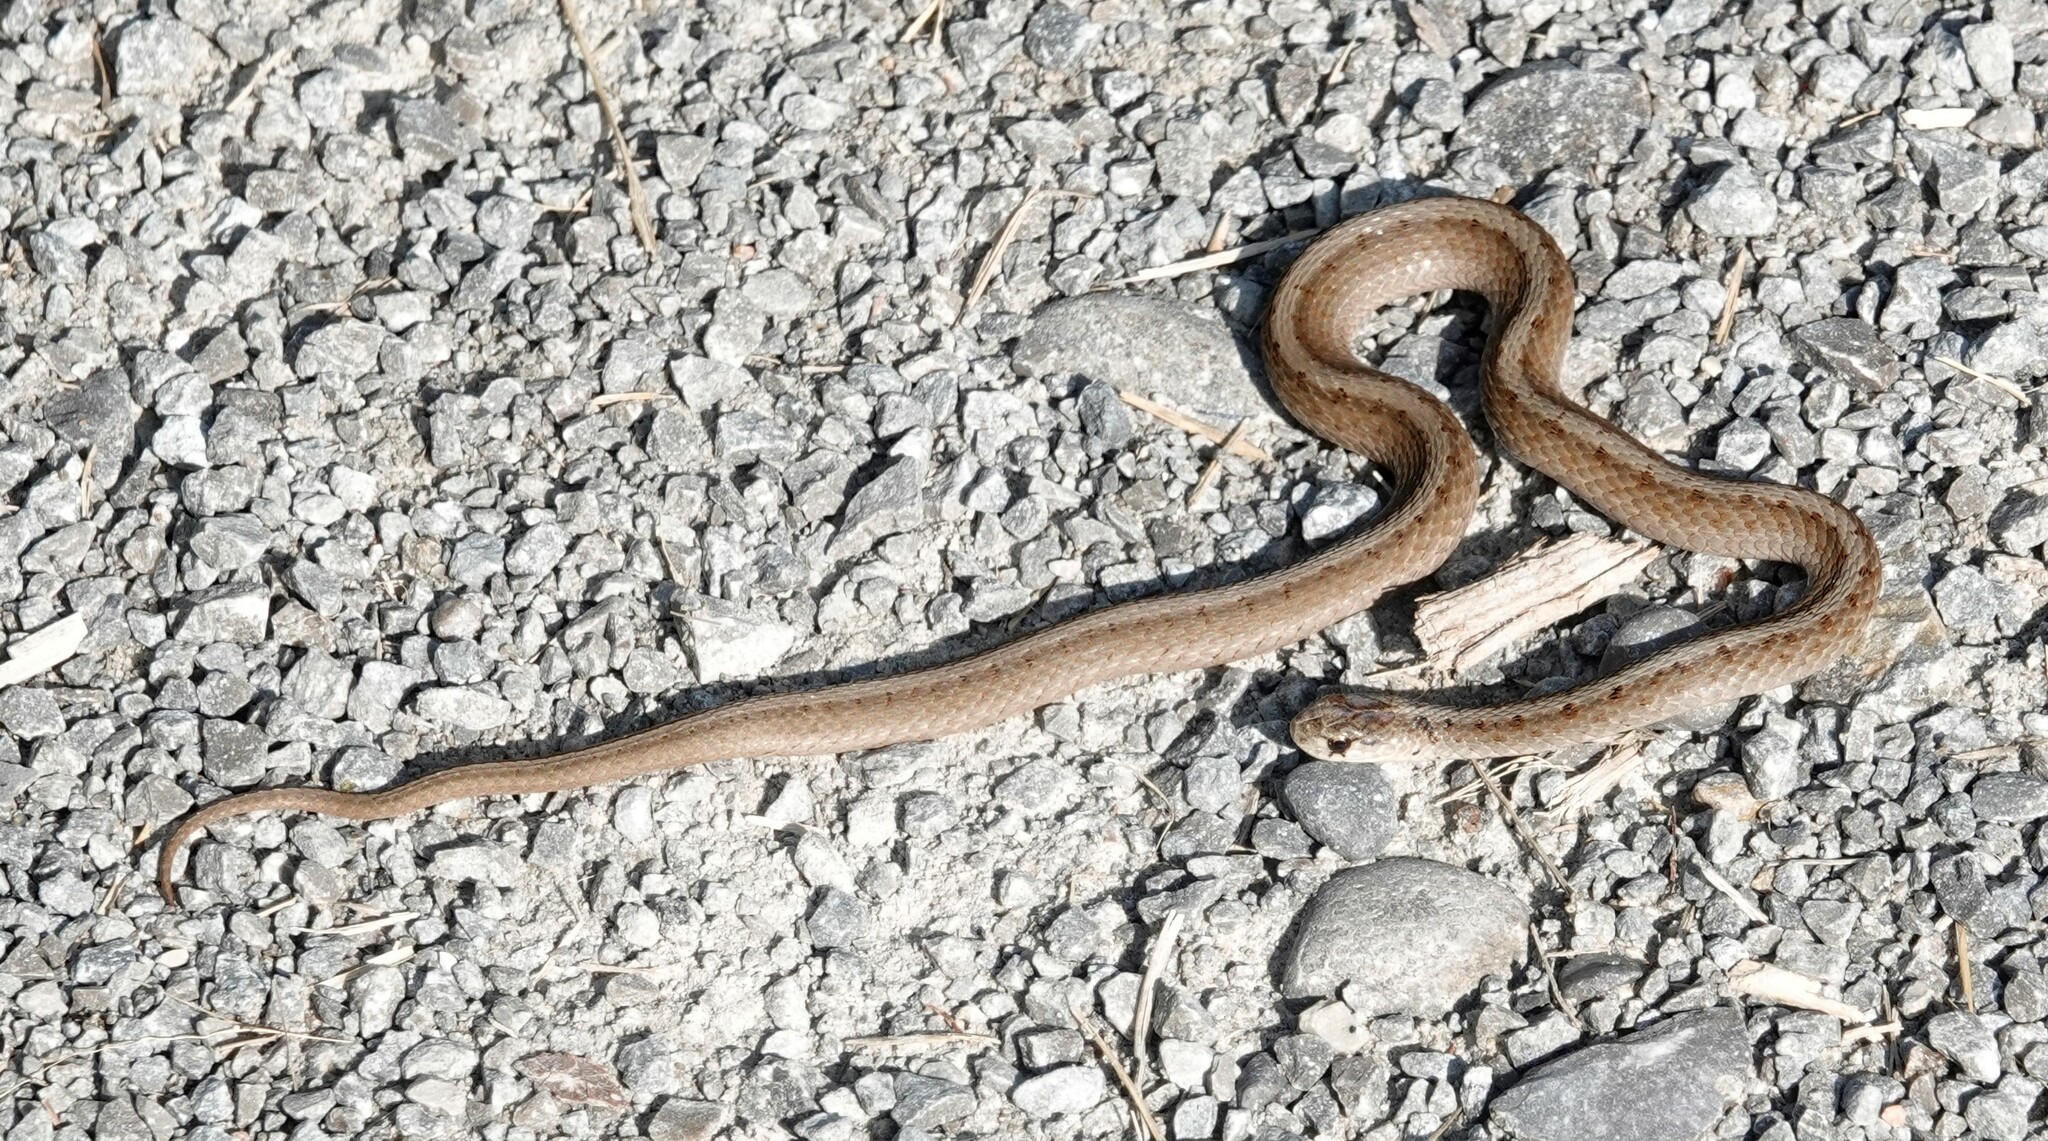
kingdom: Animalia
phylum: Chordata
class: Squamata
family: Colubridae
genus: Storeria
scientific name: Storeria dekayi
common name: (dekay’s) brown snake
